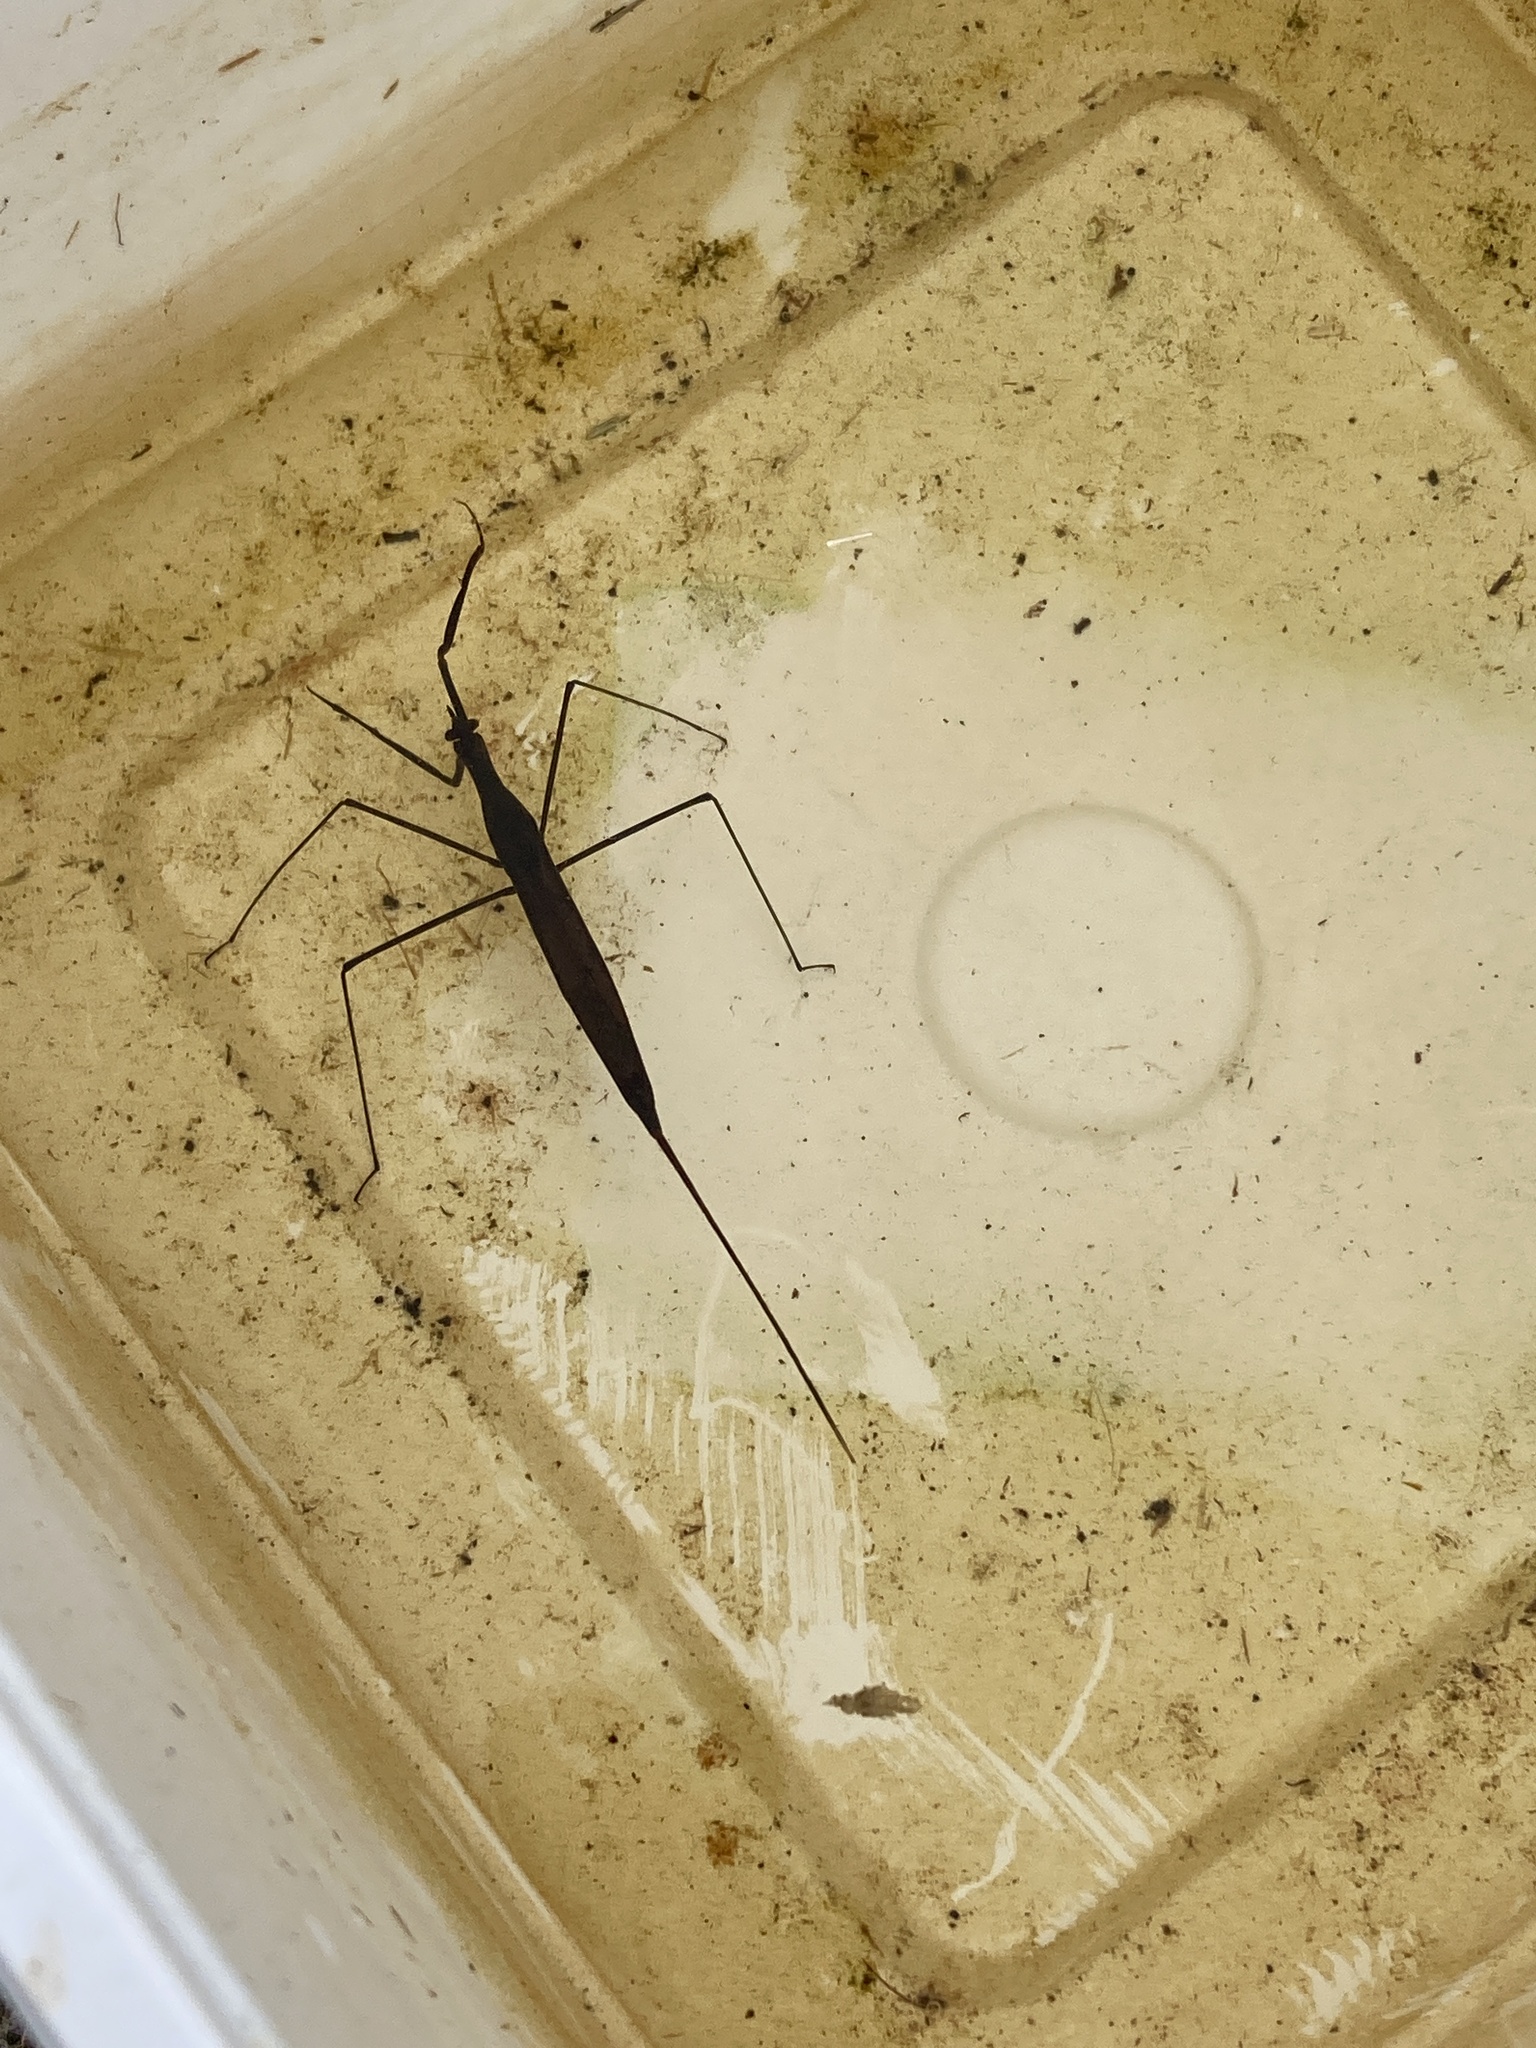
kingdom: Animalia
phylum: Arthropoda
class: Insecta
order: Hemiptera
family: Nepidae
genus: Ranatra
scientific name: Ranatra linearis
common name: Water stick insect
